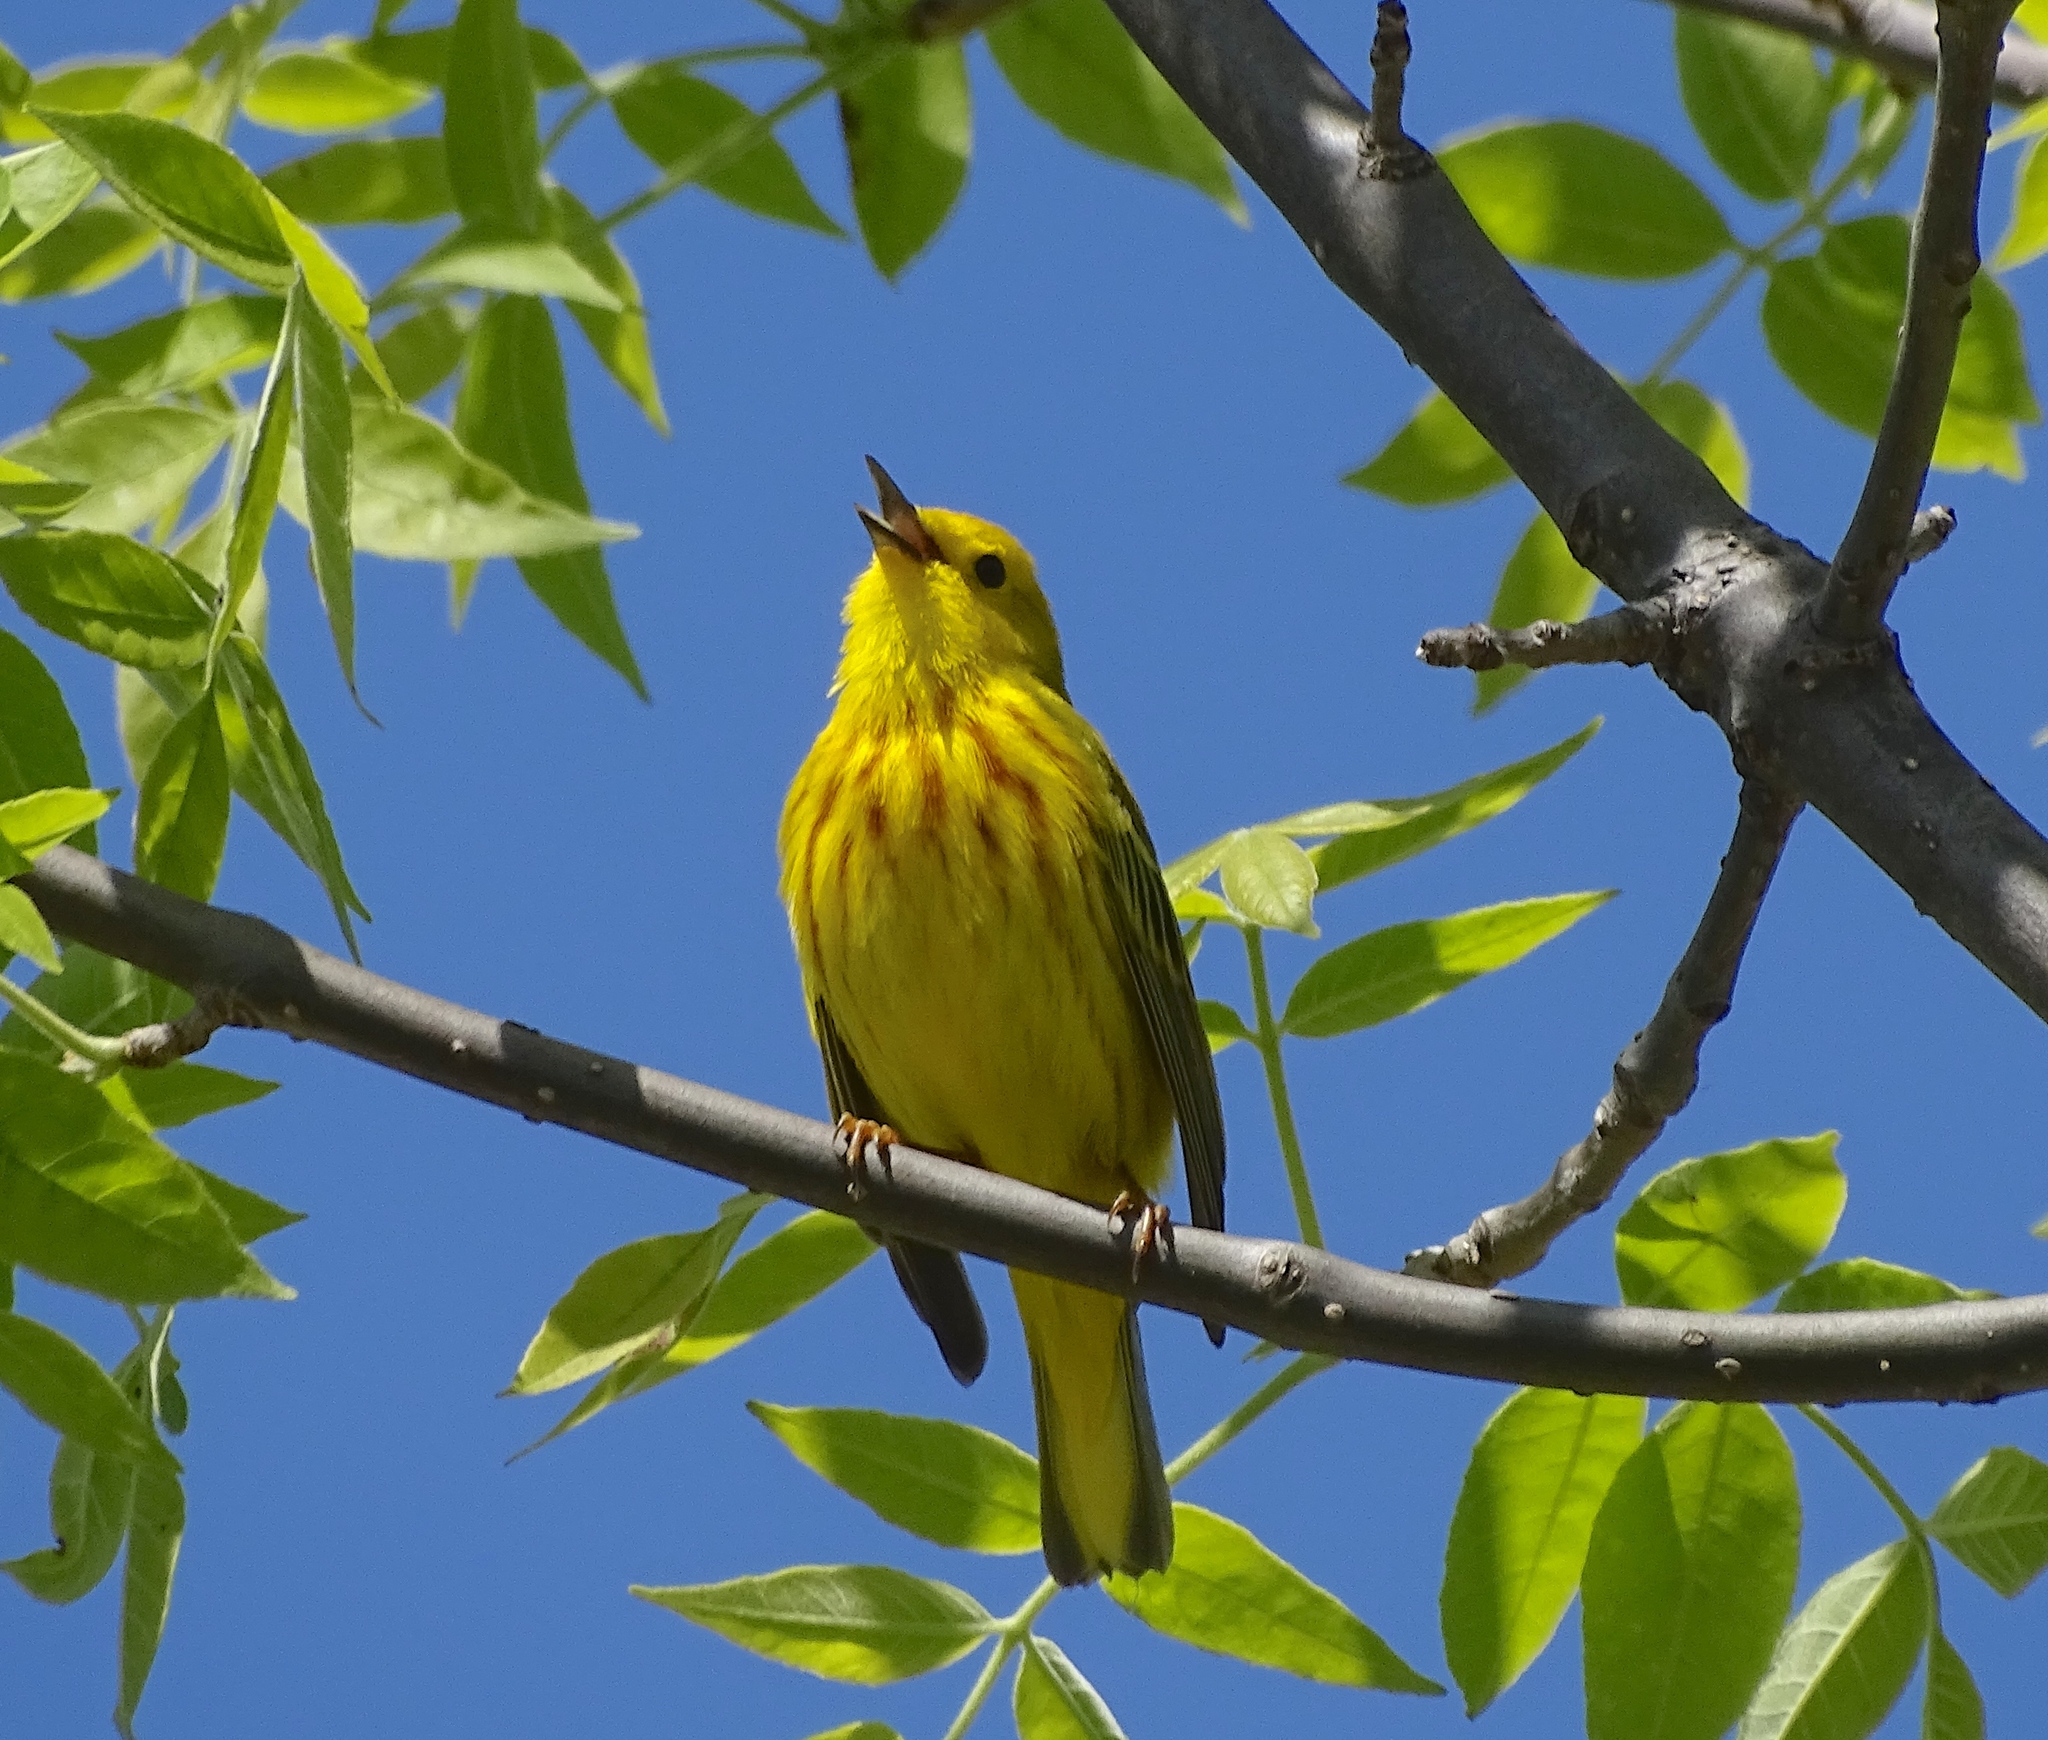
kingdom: Animalia
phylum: Chordata
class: Aves
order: Passeriformes
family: Parulidae
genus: Setophaga
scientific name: Setophaga petechia
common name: Yellow warbler
